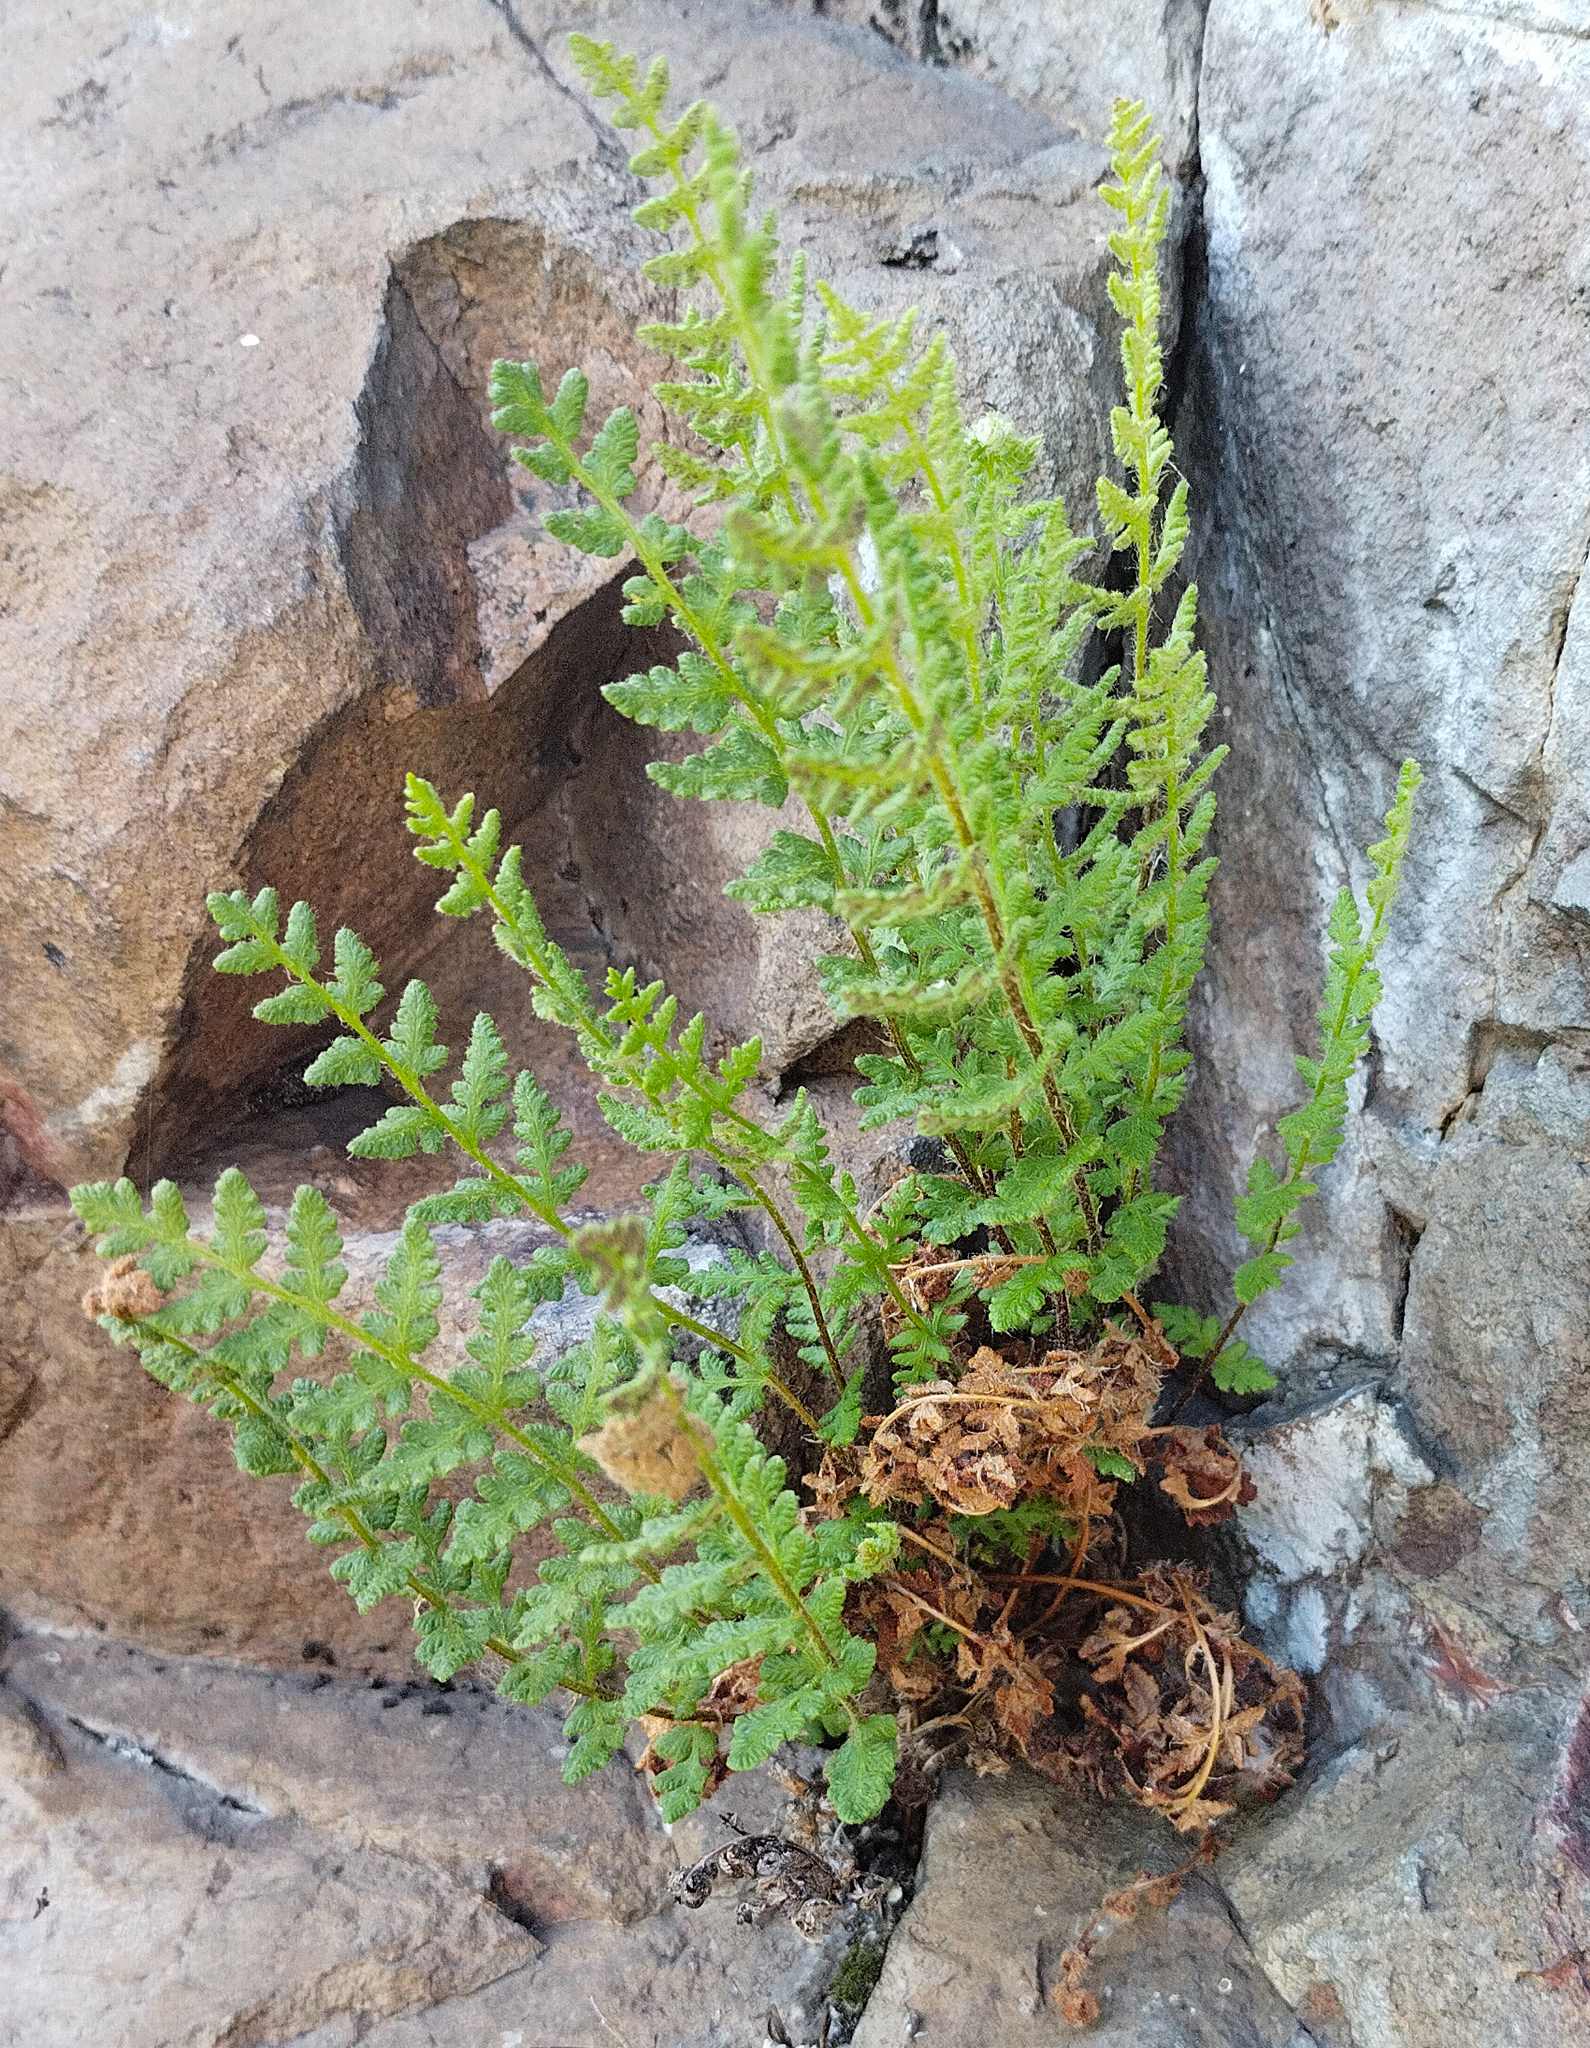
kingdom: Plantae
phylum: Tracheophyta
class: Polypodiopsida
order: Polypodiales
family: Woodsiaceae
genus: Woodsia
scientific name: Woodsia ilvensis
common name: Fragrant woodsia
